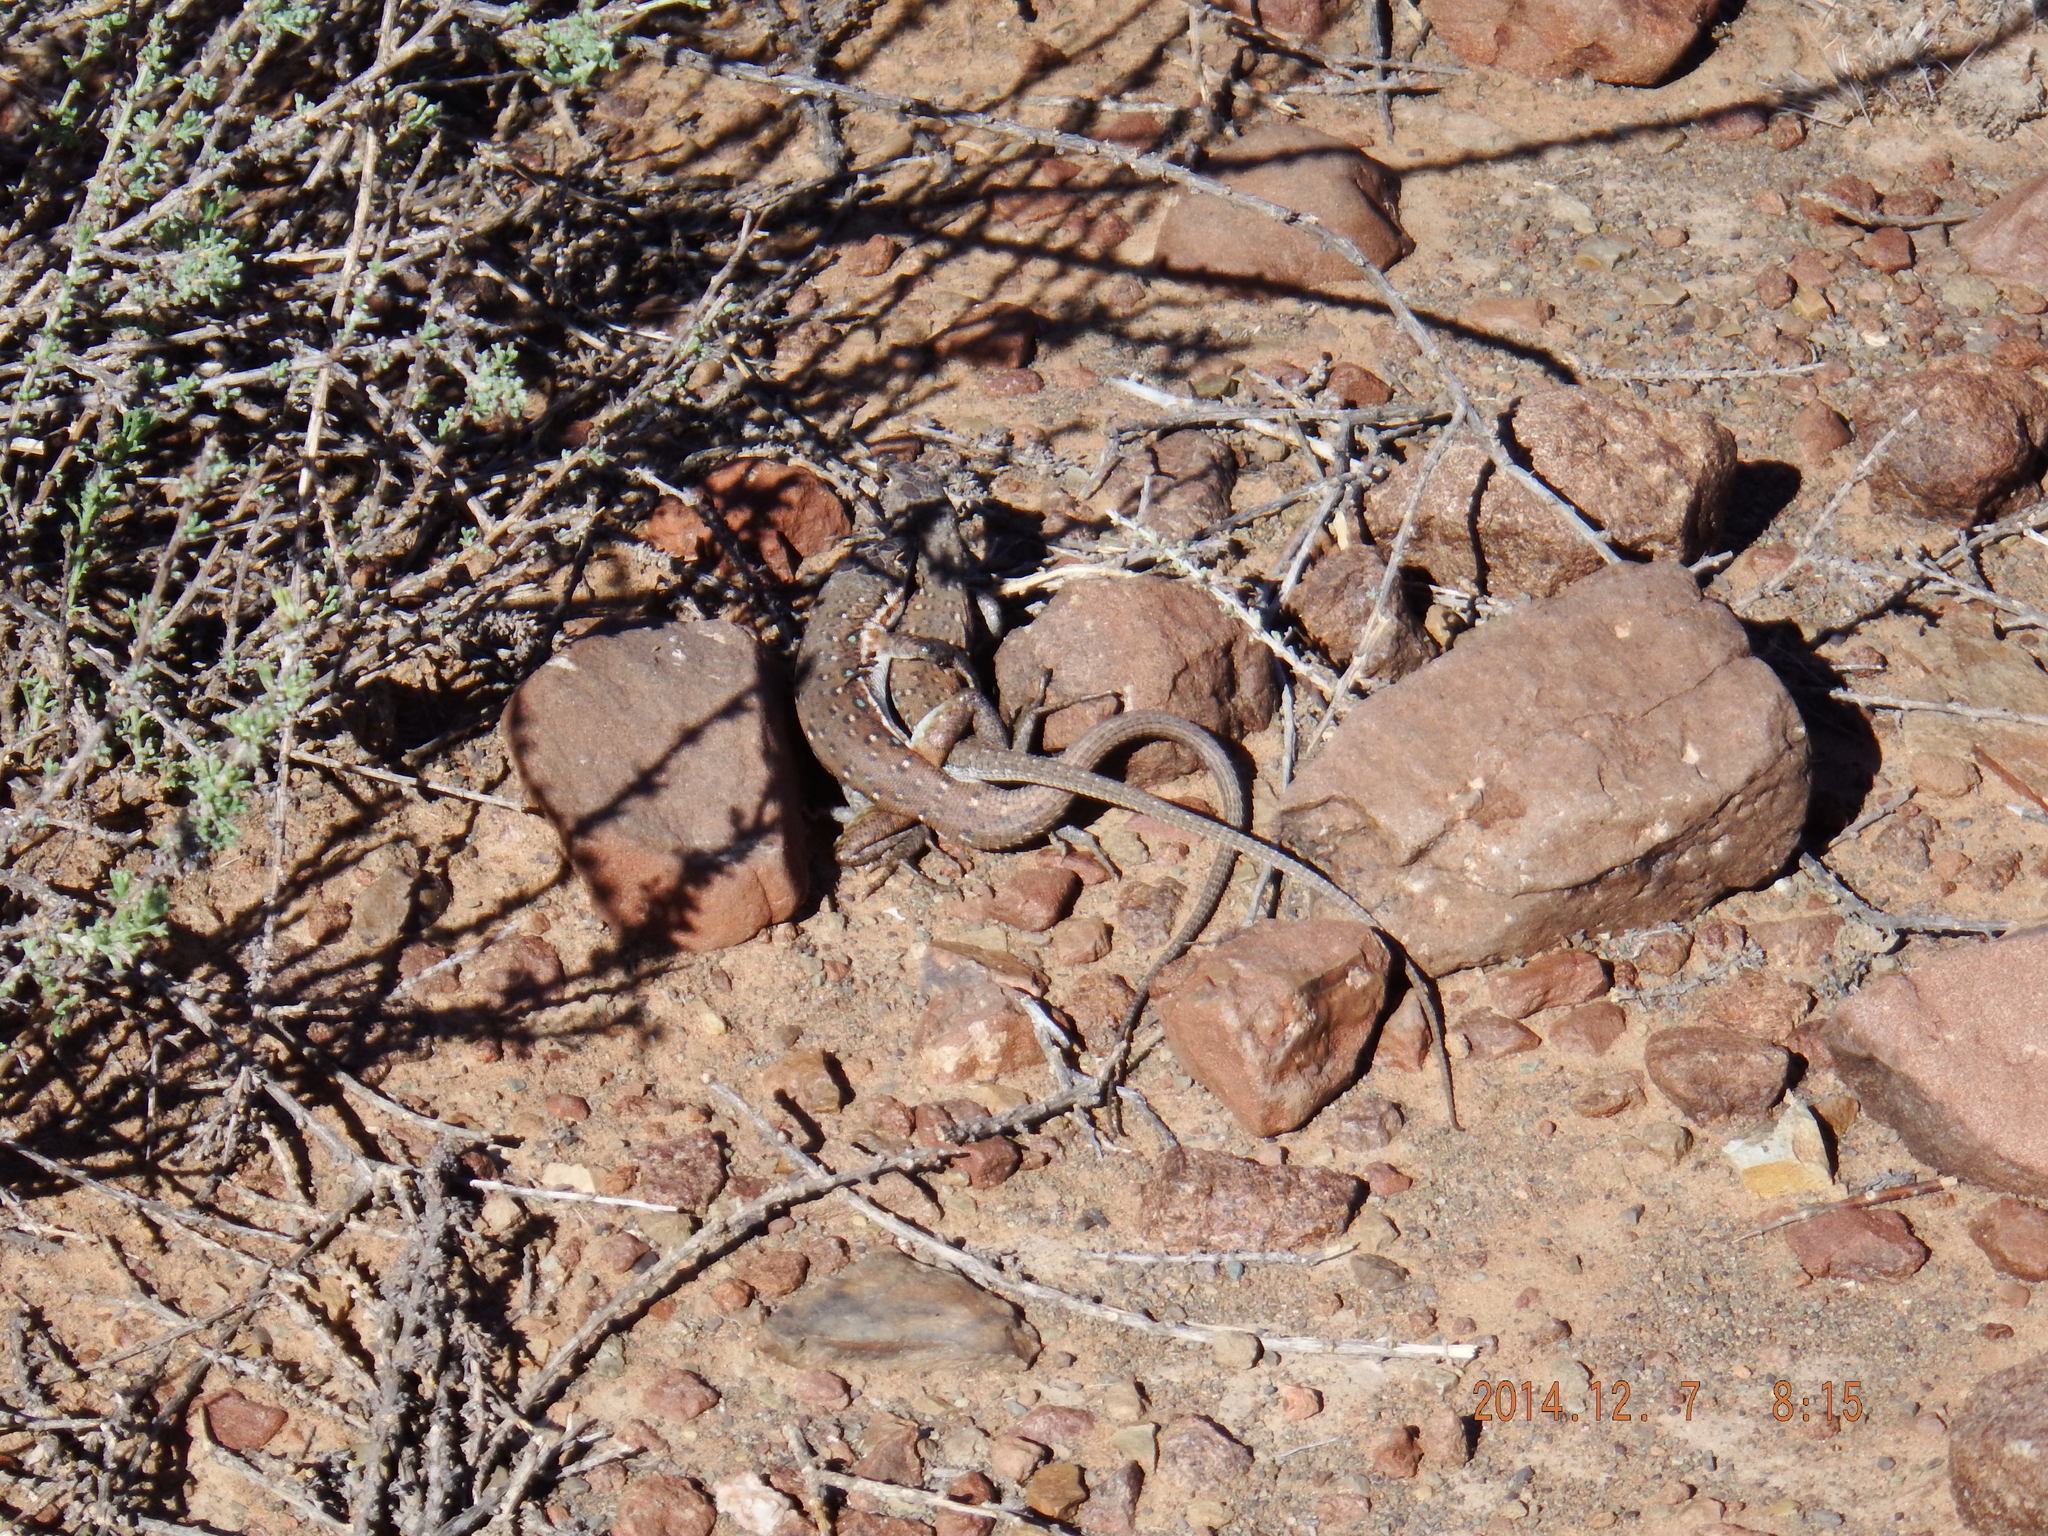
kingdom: Animalia
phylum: Chordata
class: Squamata
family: Lacertidae
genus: Pedioplanis
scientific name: Pedioplanis lineoocellata
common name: Spotted sand lizard
